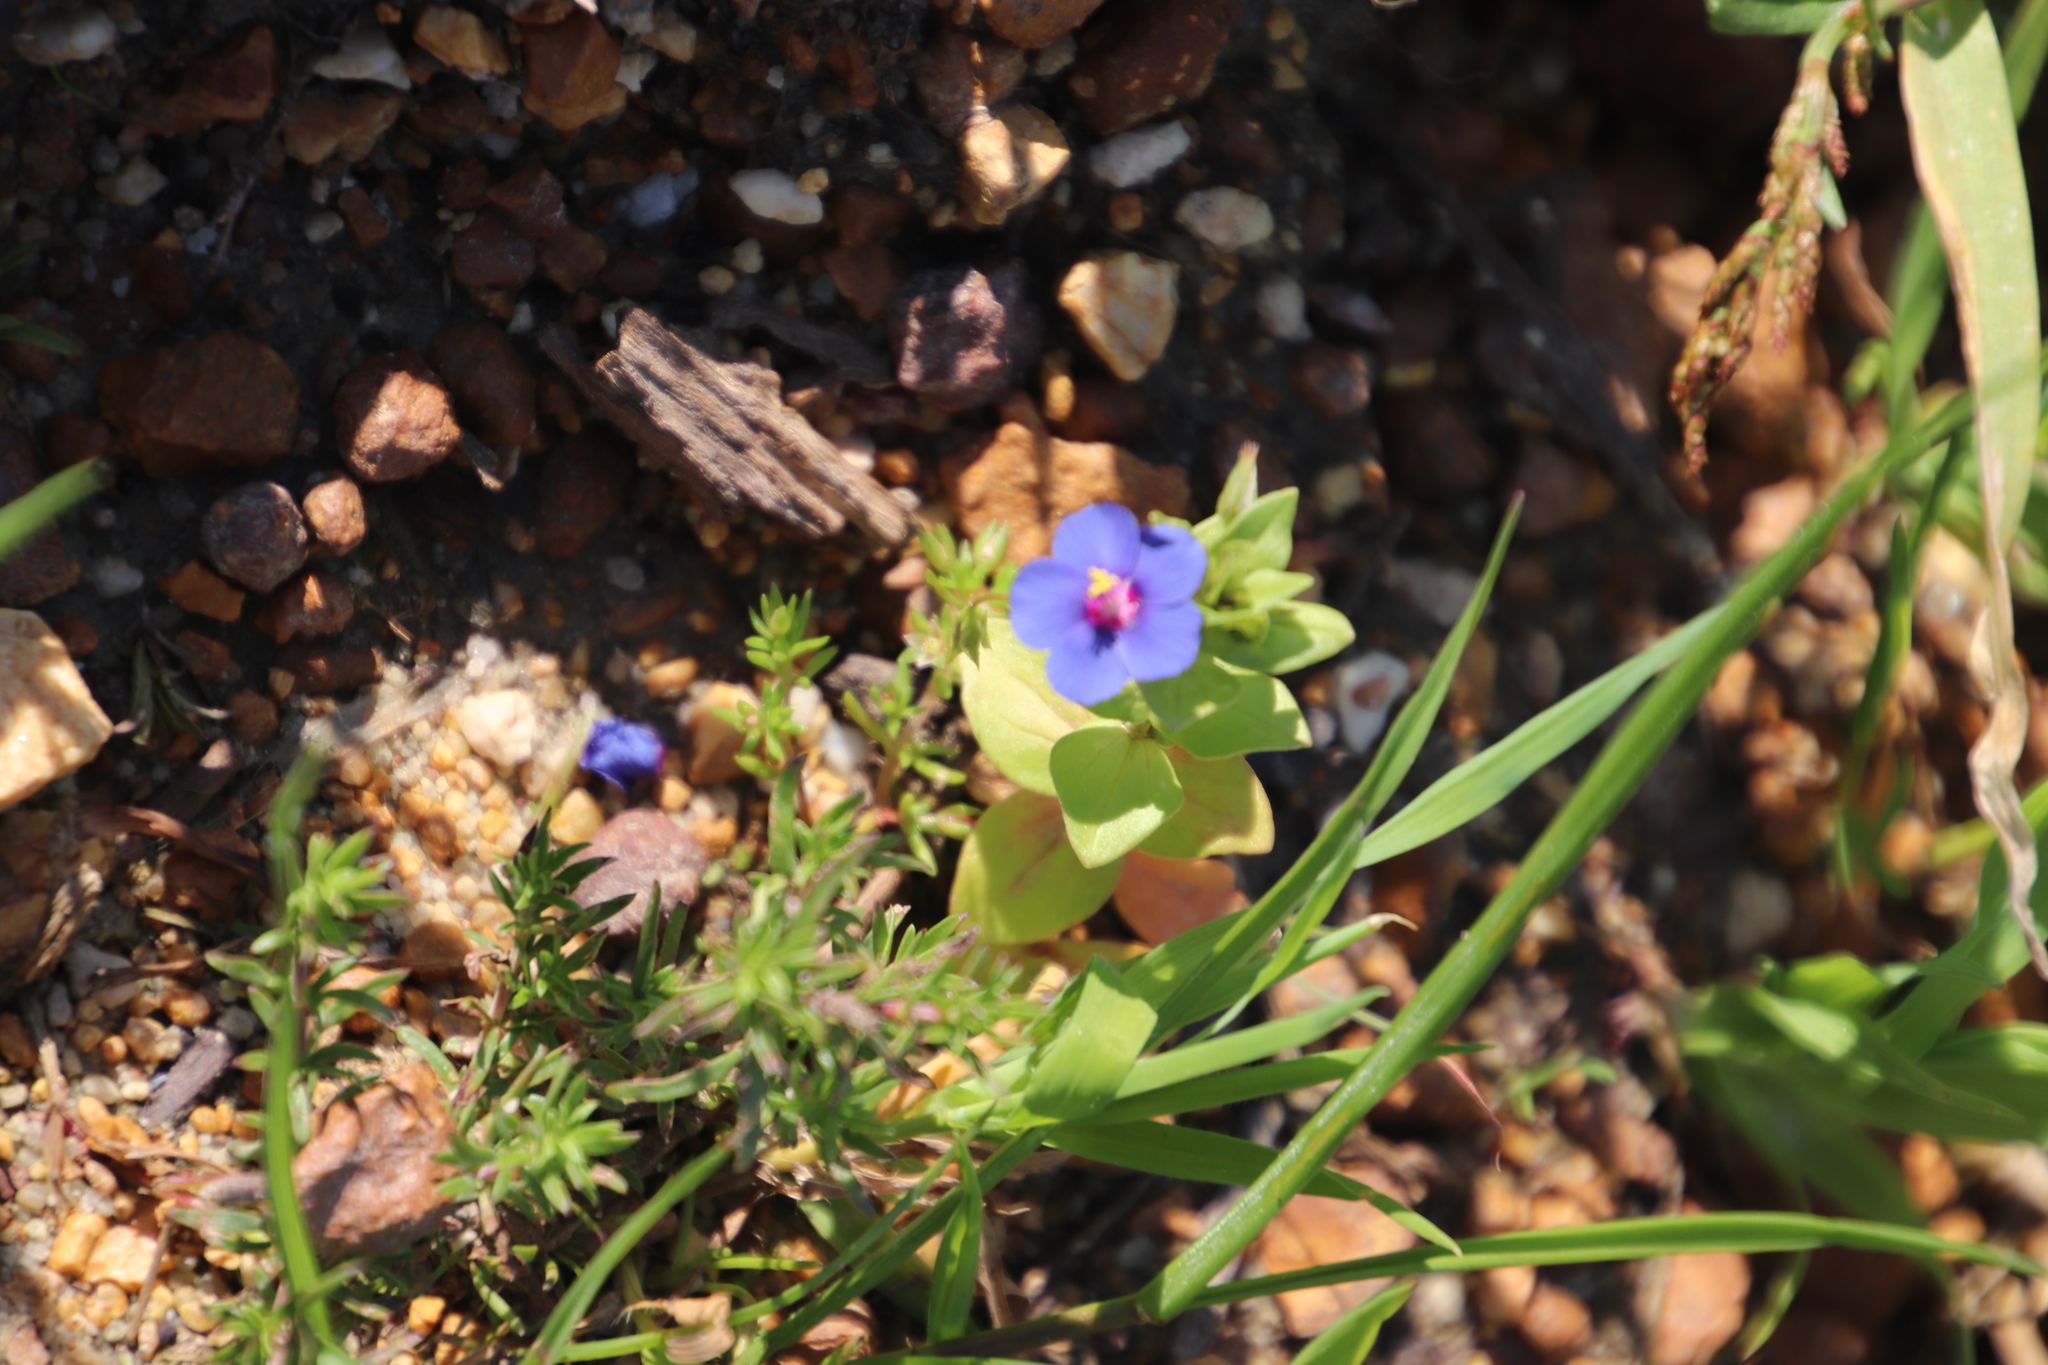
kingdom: Plantae
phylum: Tracheophyta
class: Magnoliopsida
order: Ericales
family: Primulaceae
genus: Lysimachia
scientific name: Lysimachia loeflingii
